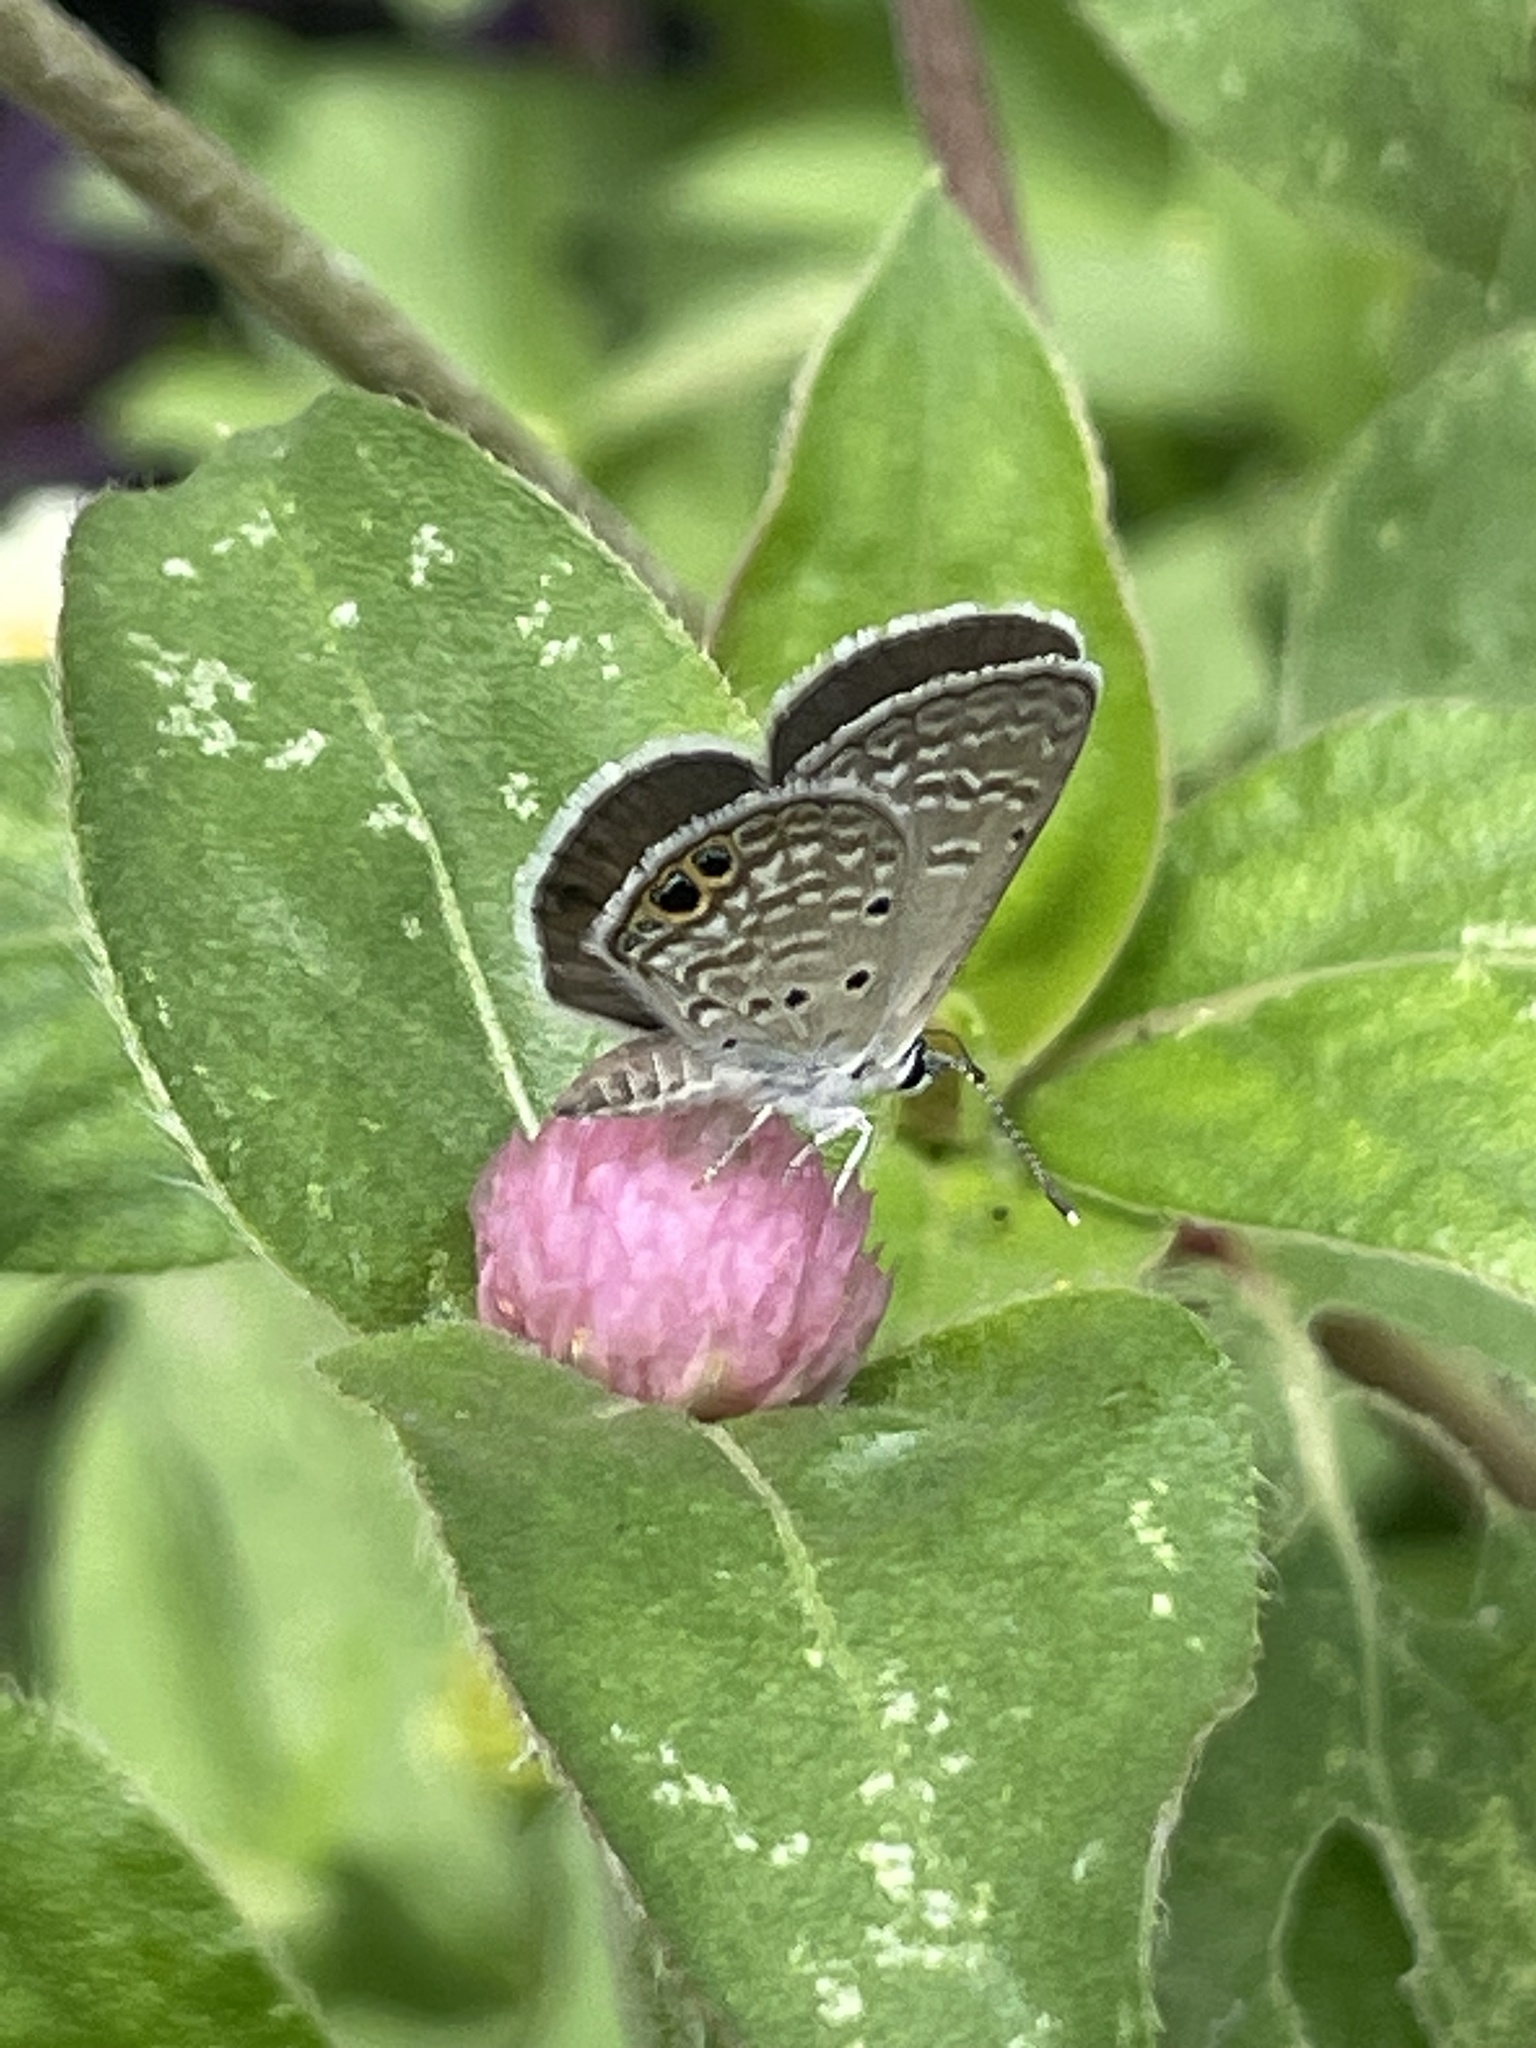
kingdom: Animalia
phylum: Arthropoda
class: Insecta
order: Lepidoptera
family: Lycaenidae
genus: Hemiargus
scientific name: Hemiargus ceraunus
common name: Ceraunus blue
